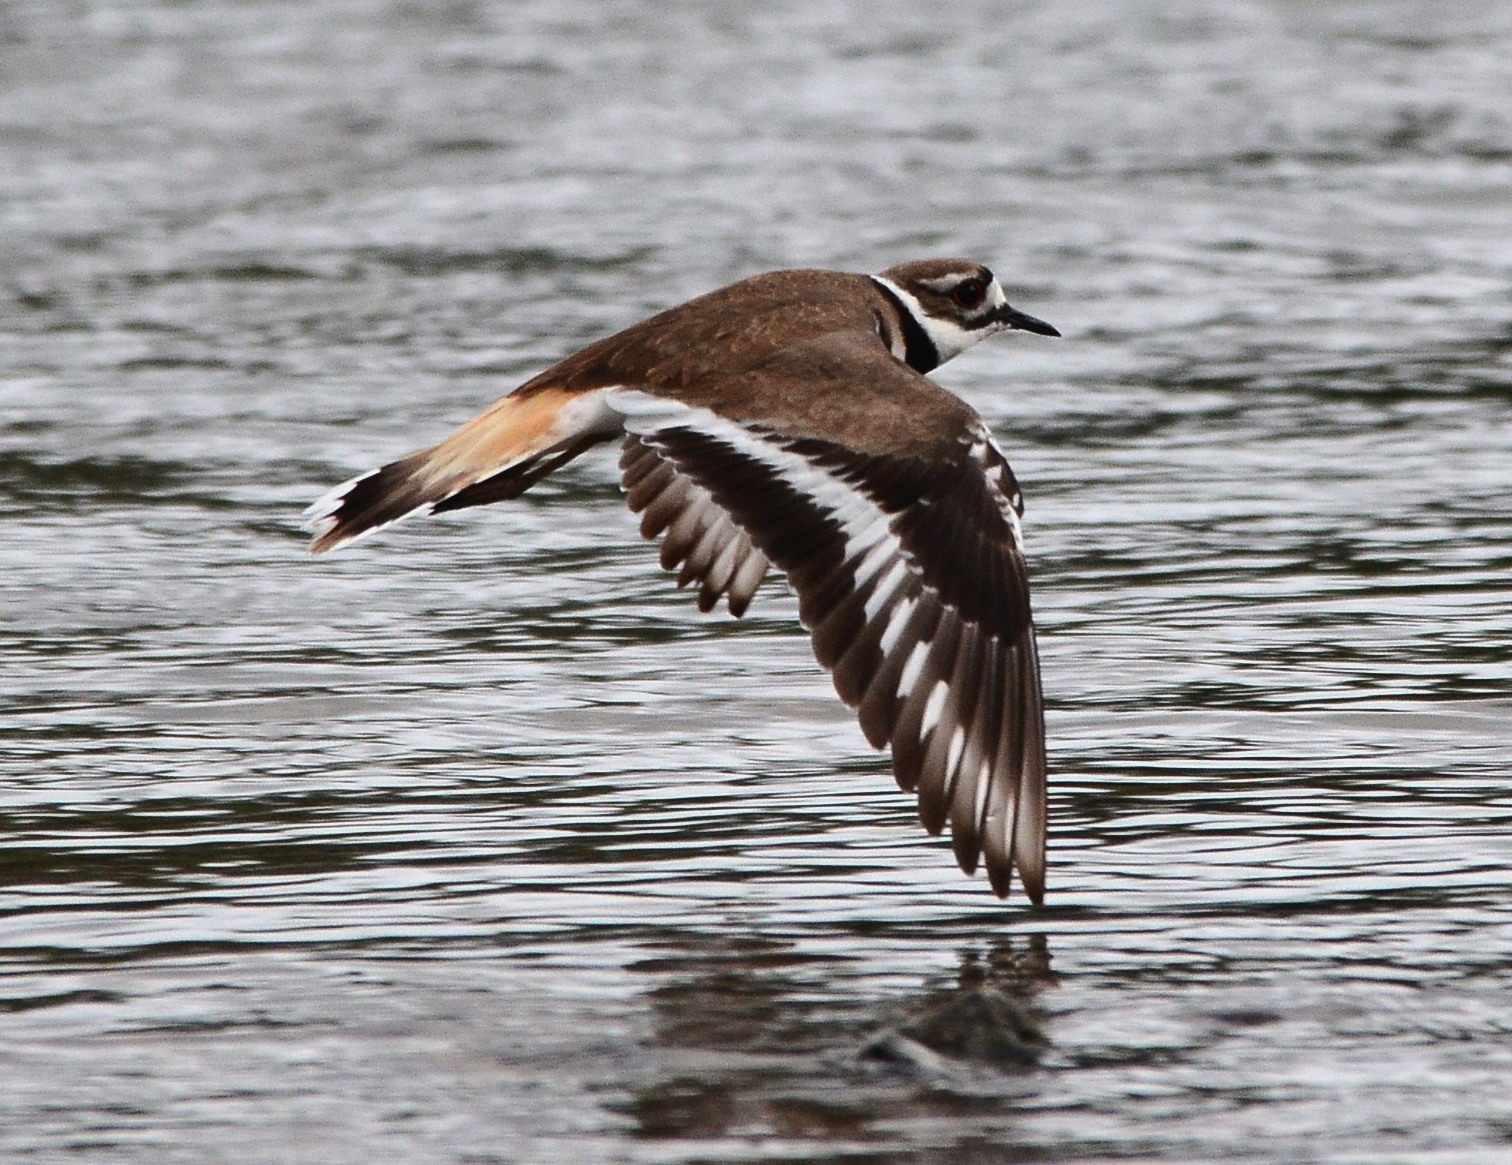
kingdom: Animalia
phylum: Chordata
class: Aves
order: Charadriiformes
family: Charadriidae
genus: Charadrius
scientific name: Charadrius vociferus
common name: Killdeer
